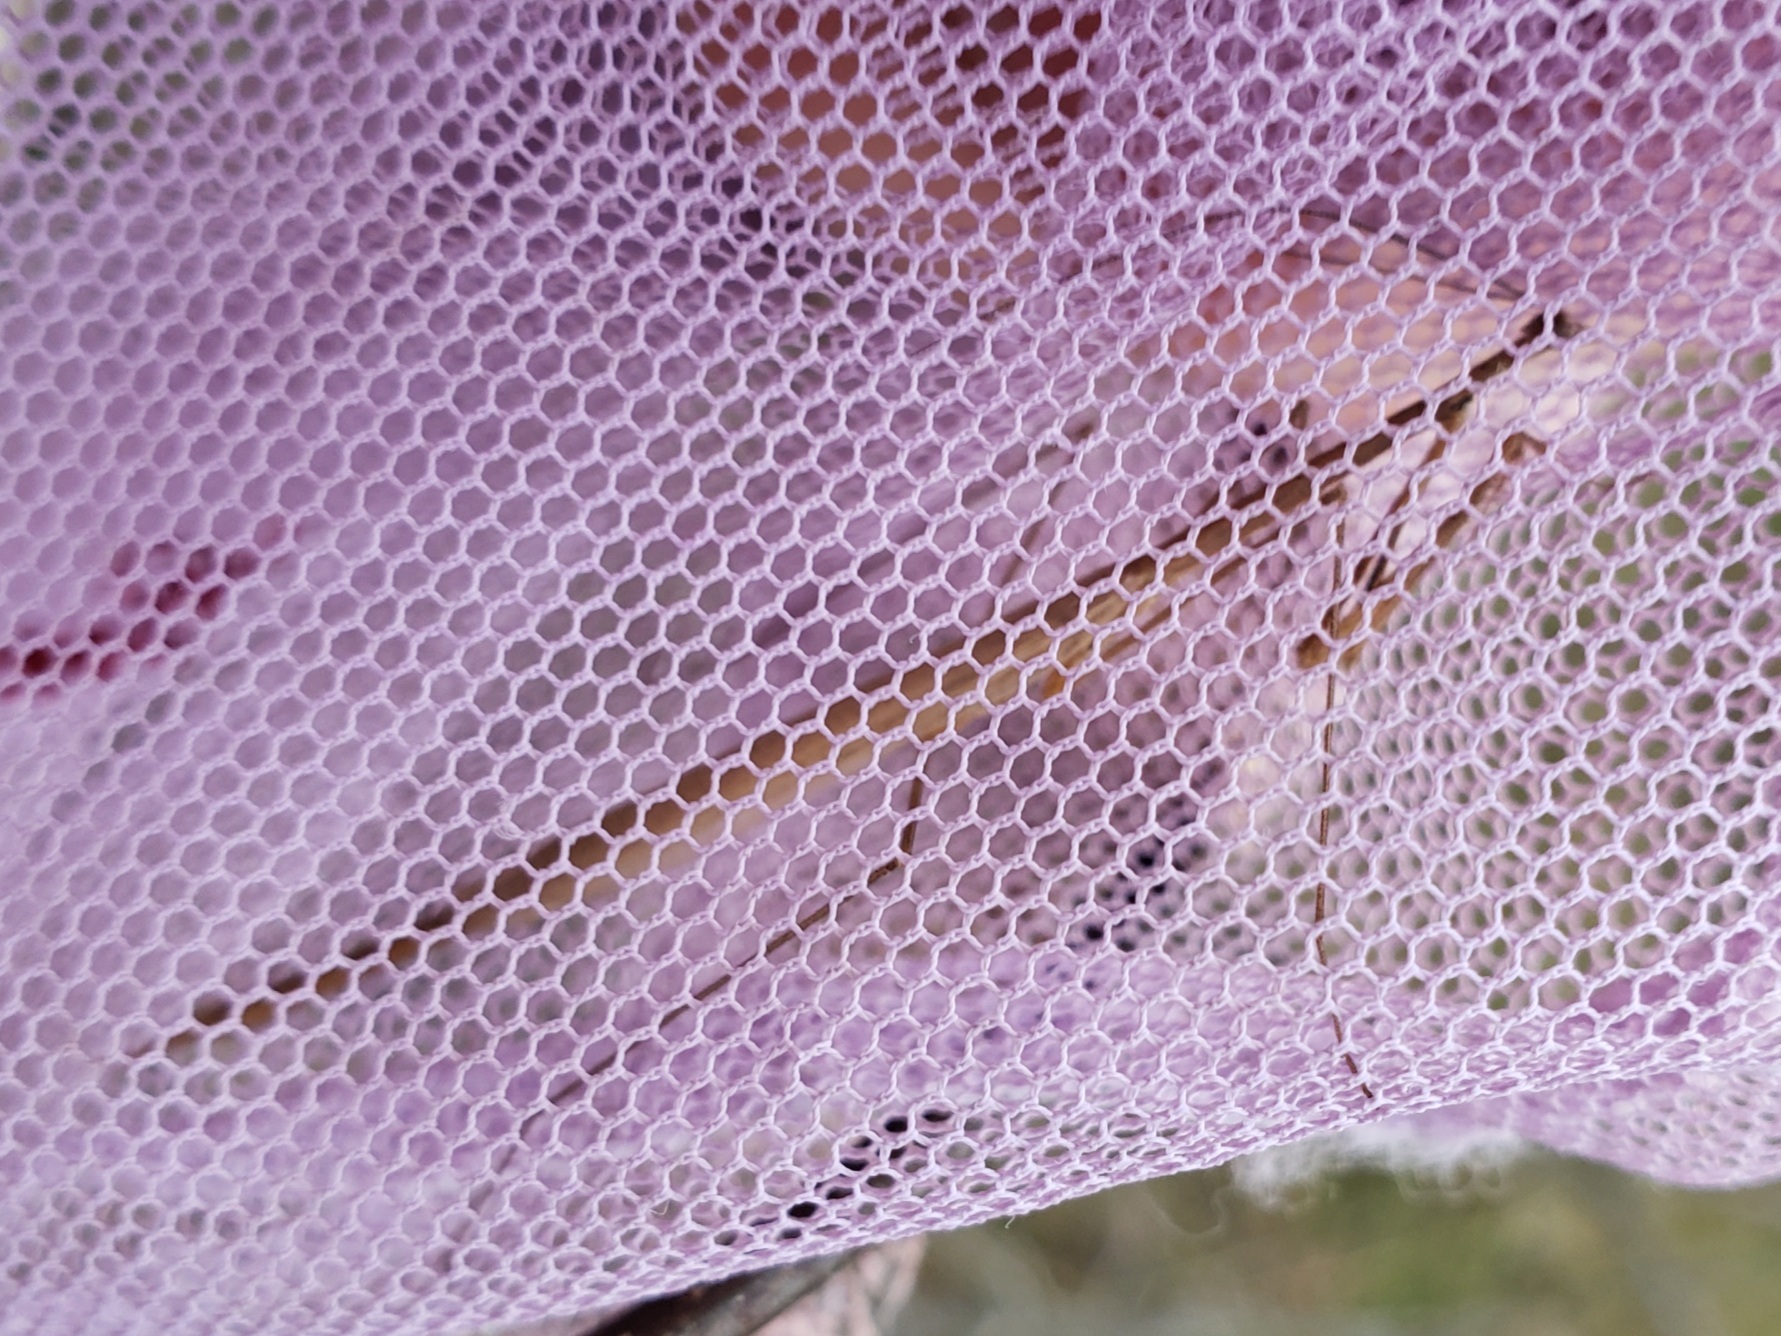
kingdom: Animalia
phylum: Arthropoda
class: Insecta
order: Mantodea
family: Thespidae
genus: Thesprotia
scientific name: Thesprotia graminis
